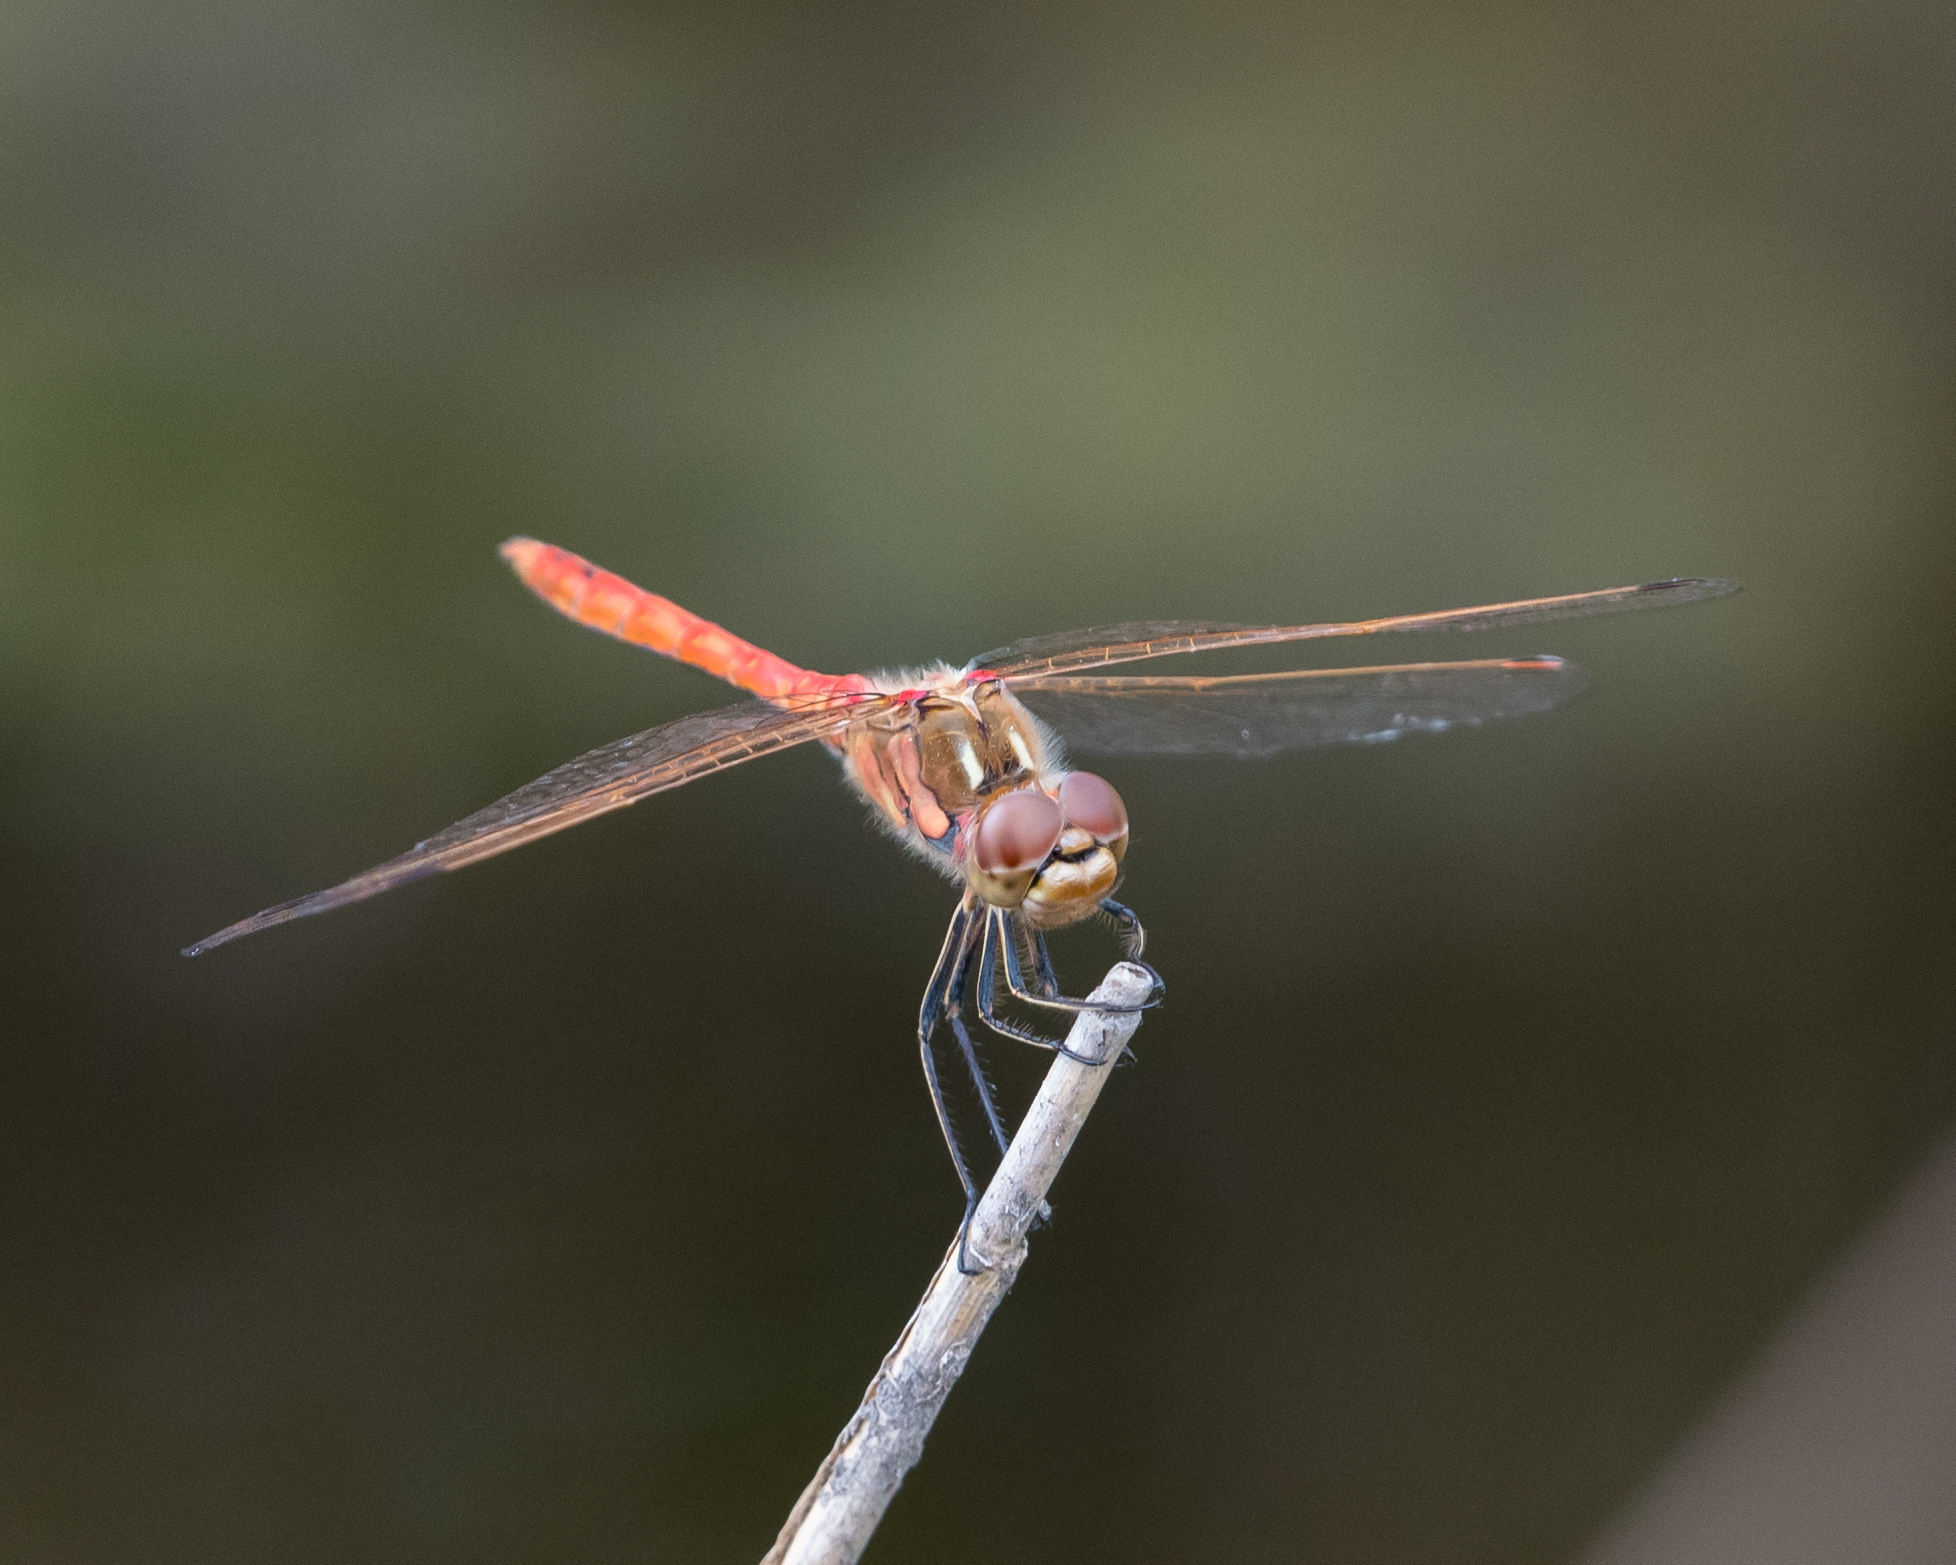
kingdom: Animalia
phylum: Arthropoda
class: Insecta
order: Odonata
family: Libellulidae
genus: Sympetrum
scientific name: Sympetrum vulgatum
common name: Vagrant darter
